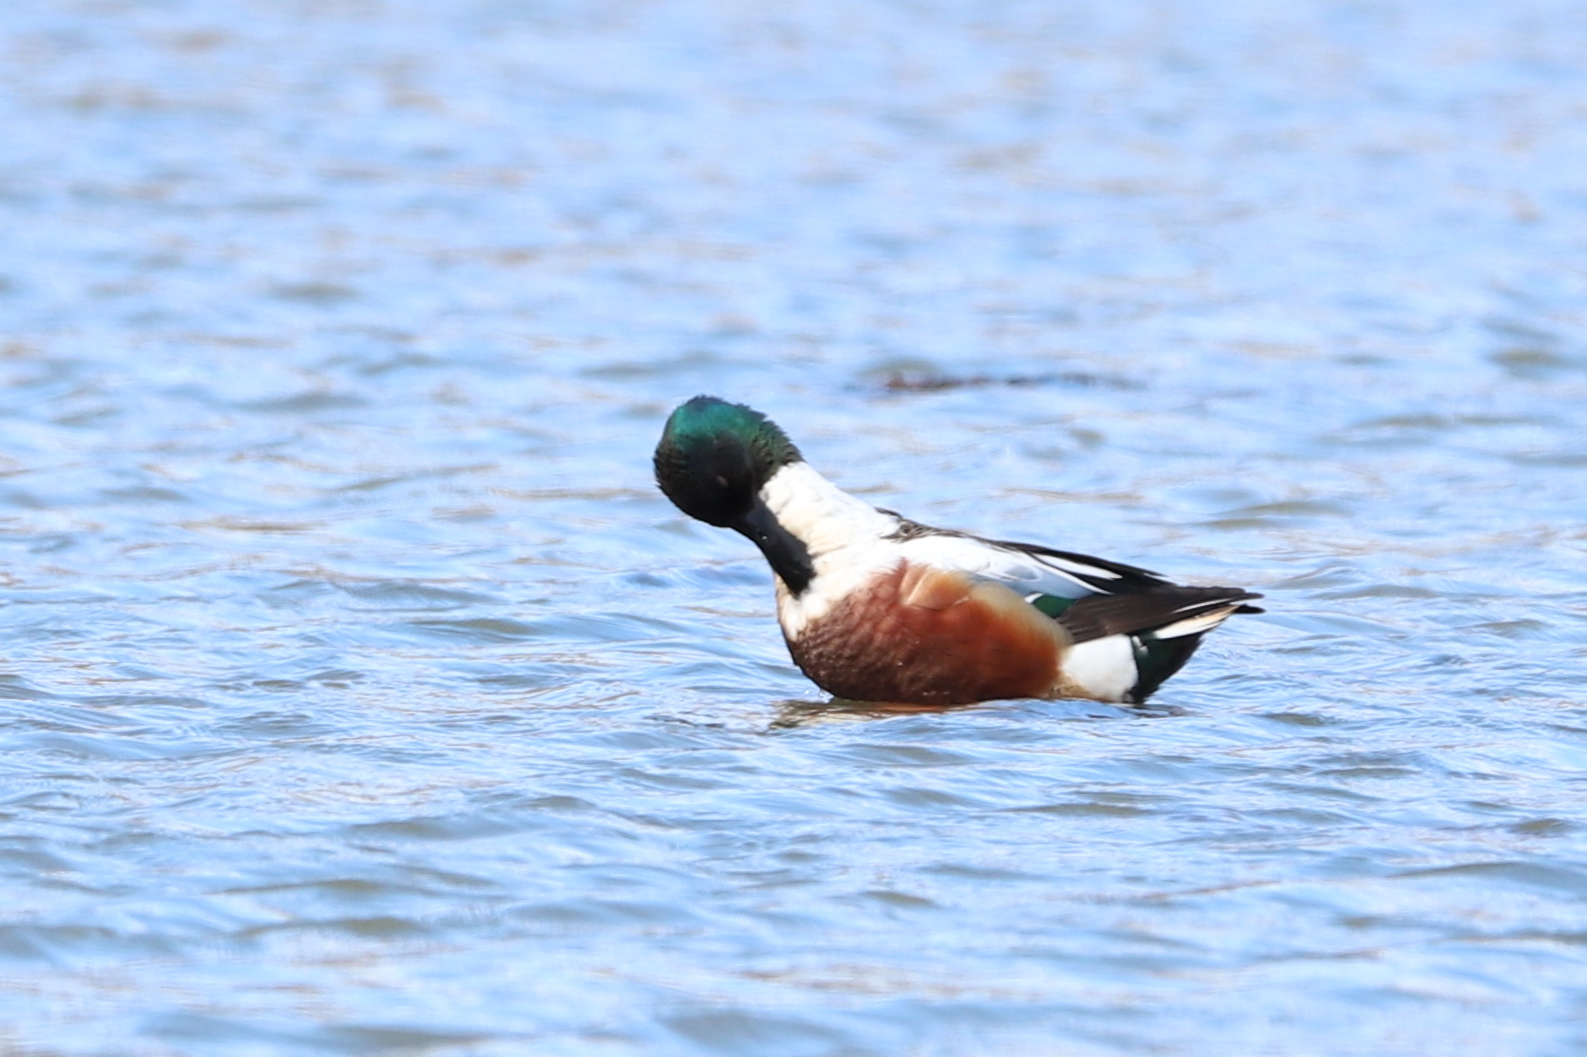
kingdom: Animalia
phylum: Chordata
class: Aves
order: Anseriformes
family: Anatidae
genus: Spatula
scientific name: Spatula clypeata
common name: Northern shoveler
